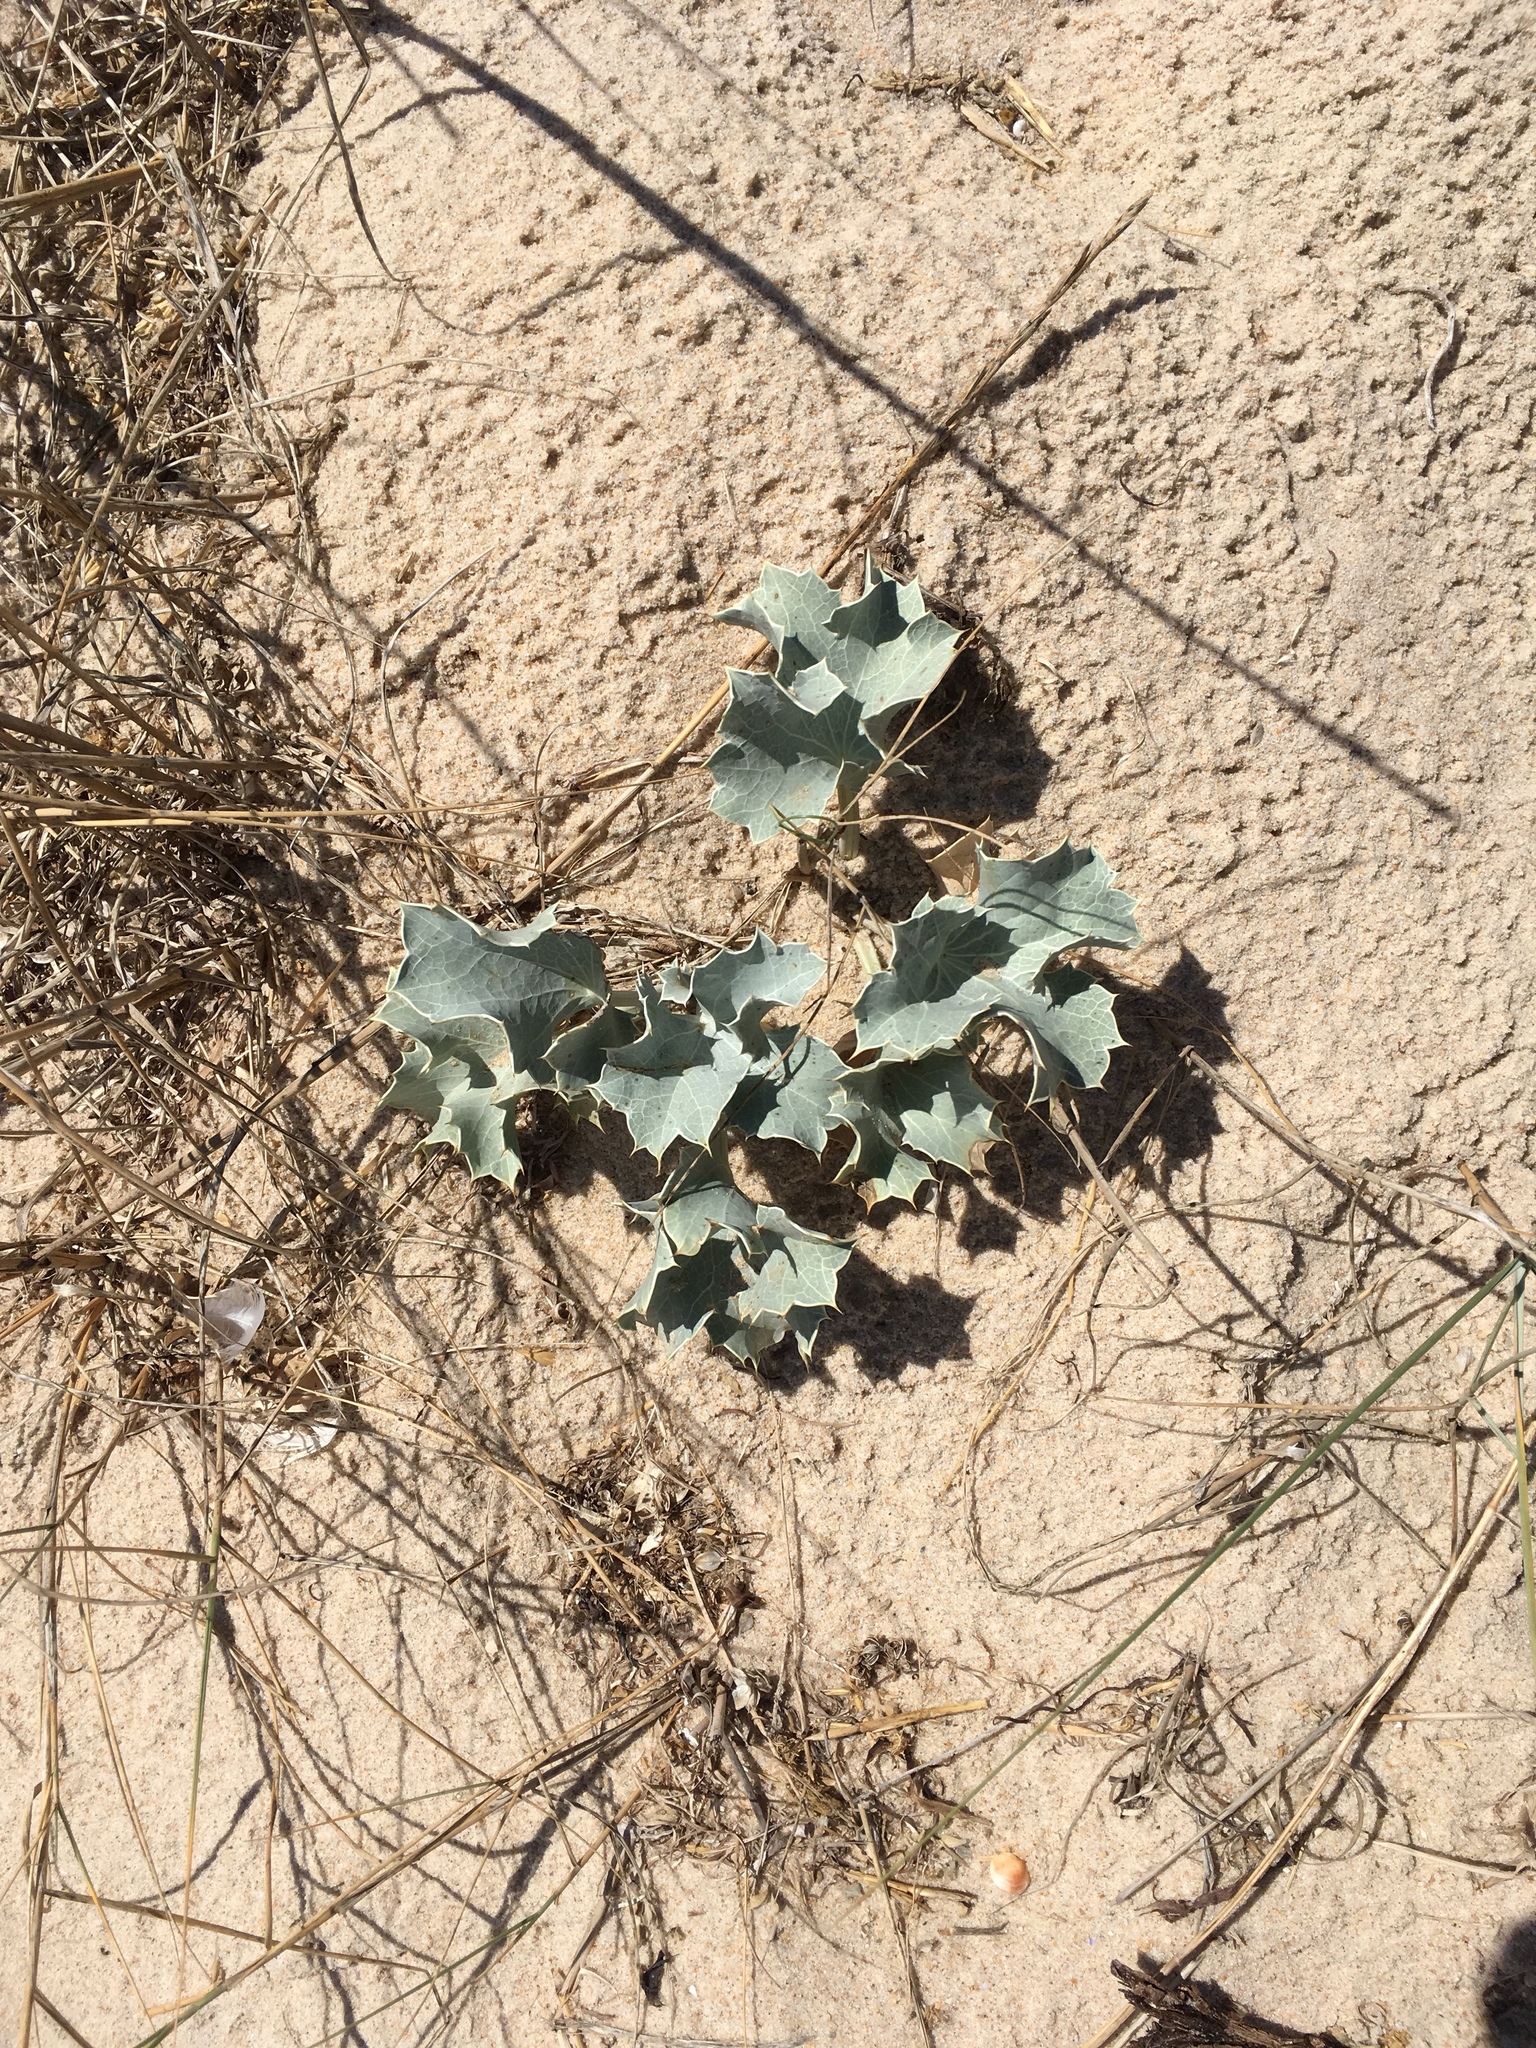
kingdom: Plantae
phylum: Tracheophyta
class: Magnoliopsida
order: Apiales
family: Apiaceae
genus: Eryngium
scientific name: Eryngium maritimum
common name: Sea-holly
